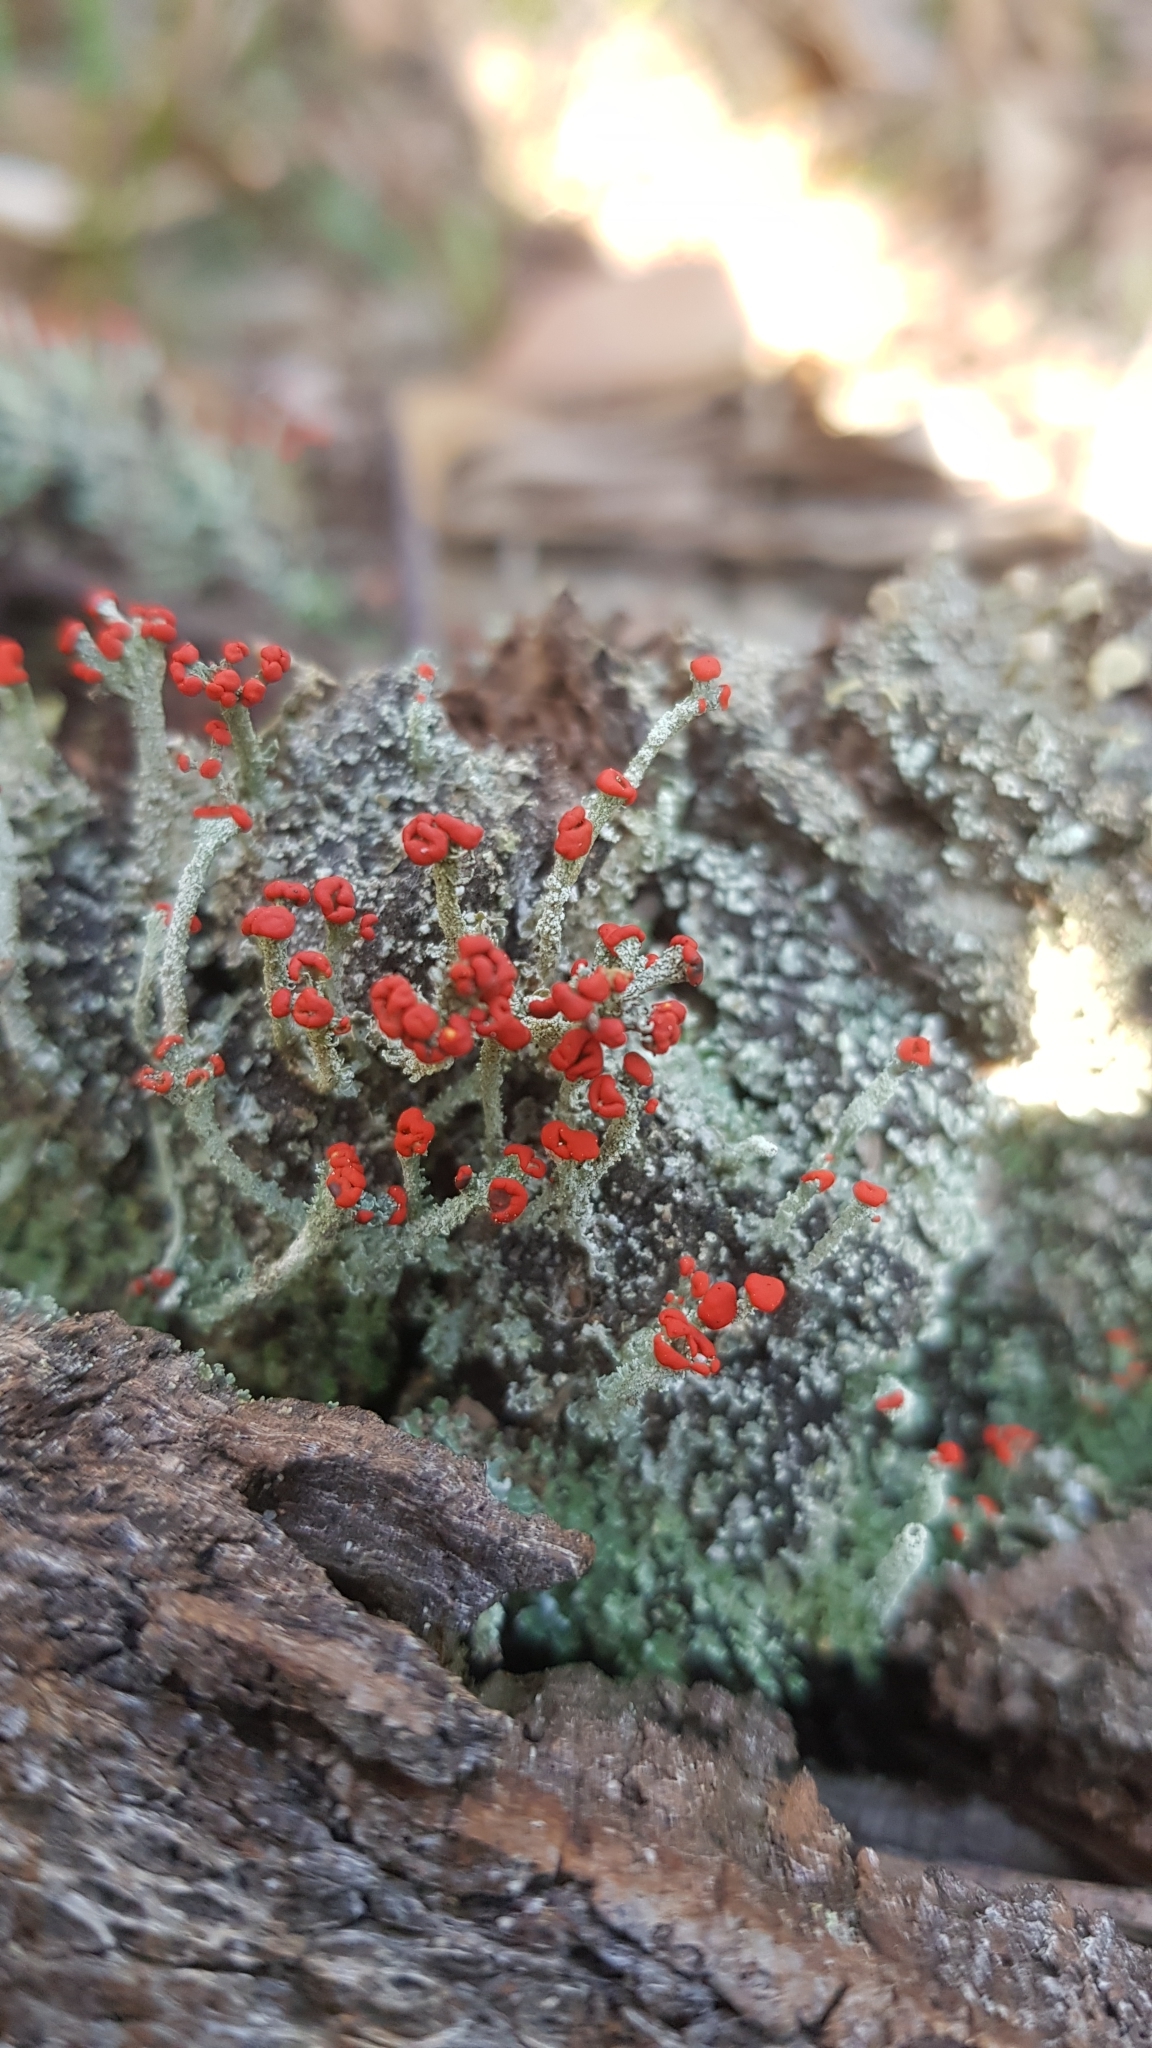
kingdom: Fungi
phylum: Ascomycota
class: Lecanoromycetes
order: Lecanorales
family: Cladoniaceae
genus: Cladonia
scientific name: Cladonia floerkeana
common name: Gritty british soldiers lichen
